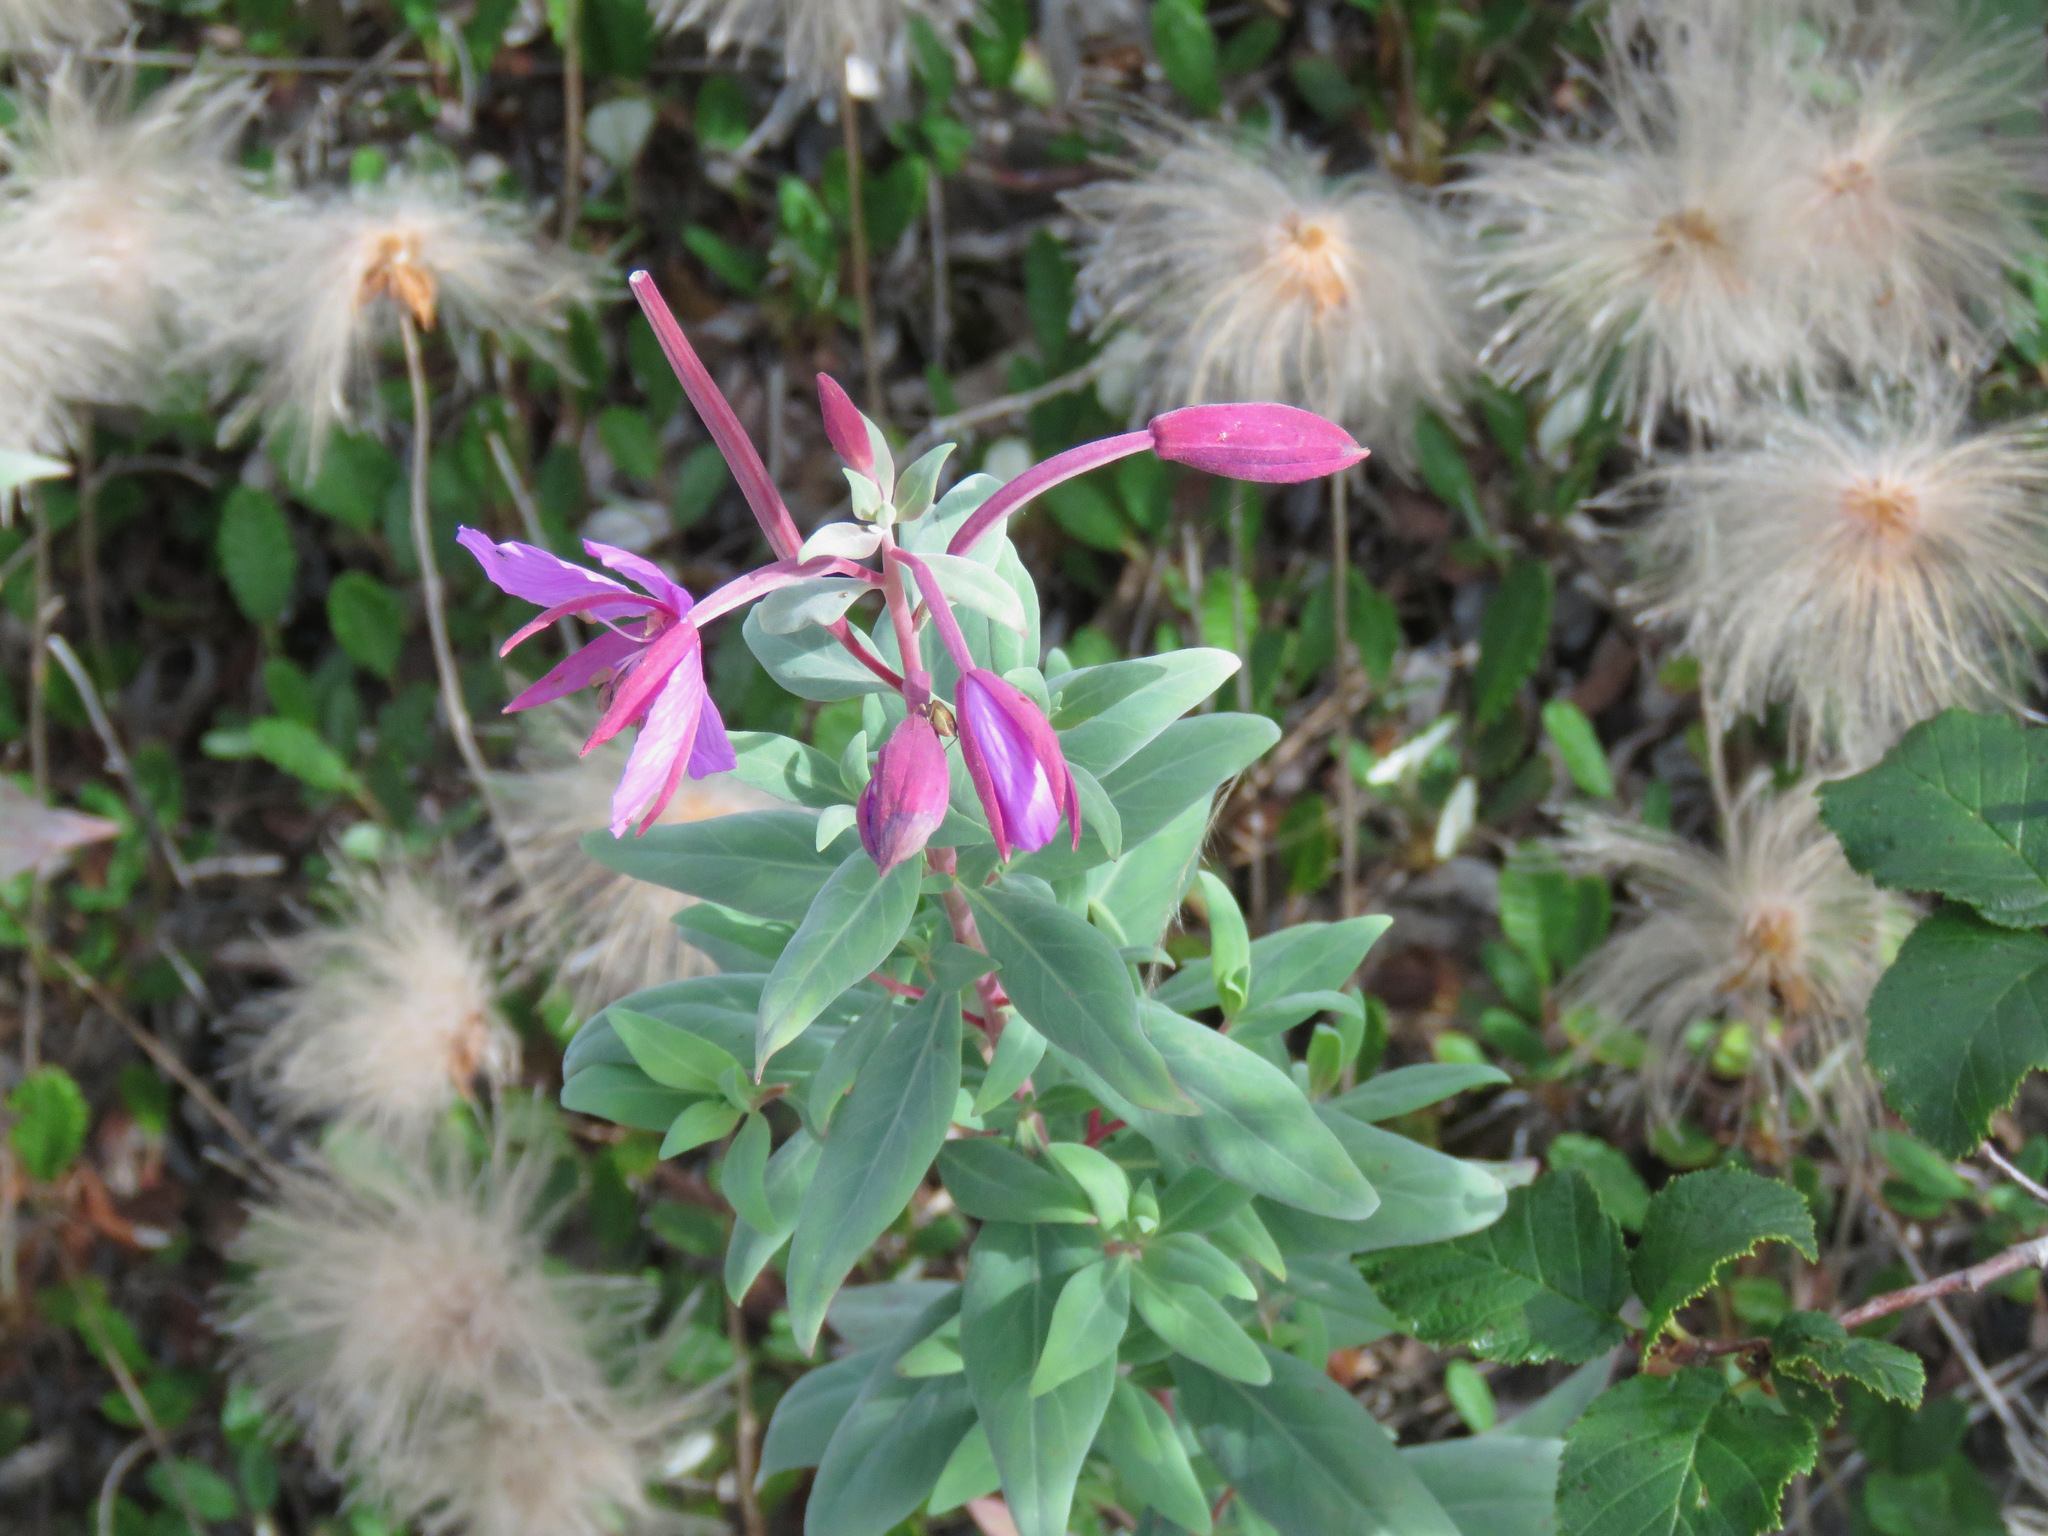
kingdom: Plantae
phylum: Tracheophyta
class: Magnoliopsida
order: Myrtales
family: Onagraceae
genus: Chamaenerion
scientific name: Chamaenerion latifolium
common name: Dwarf fireweed
